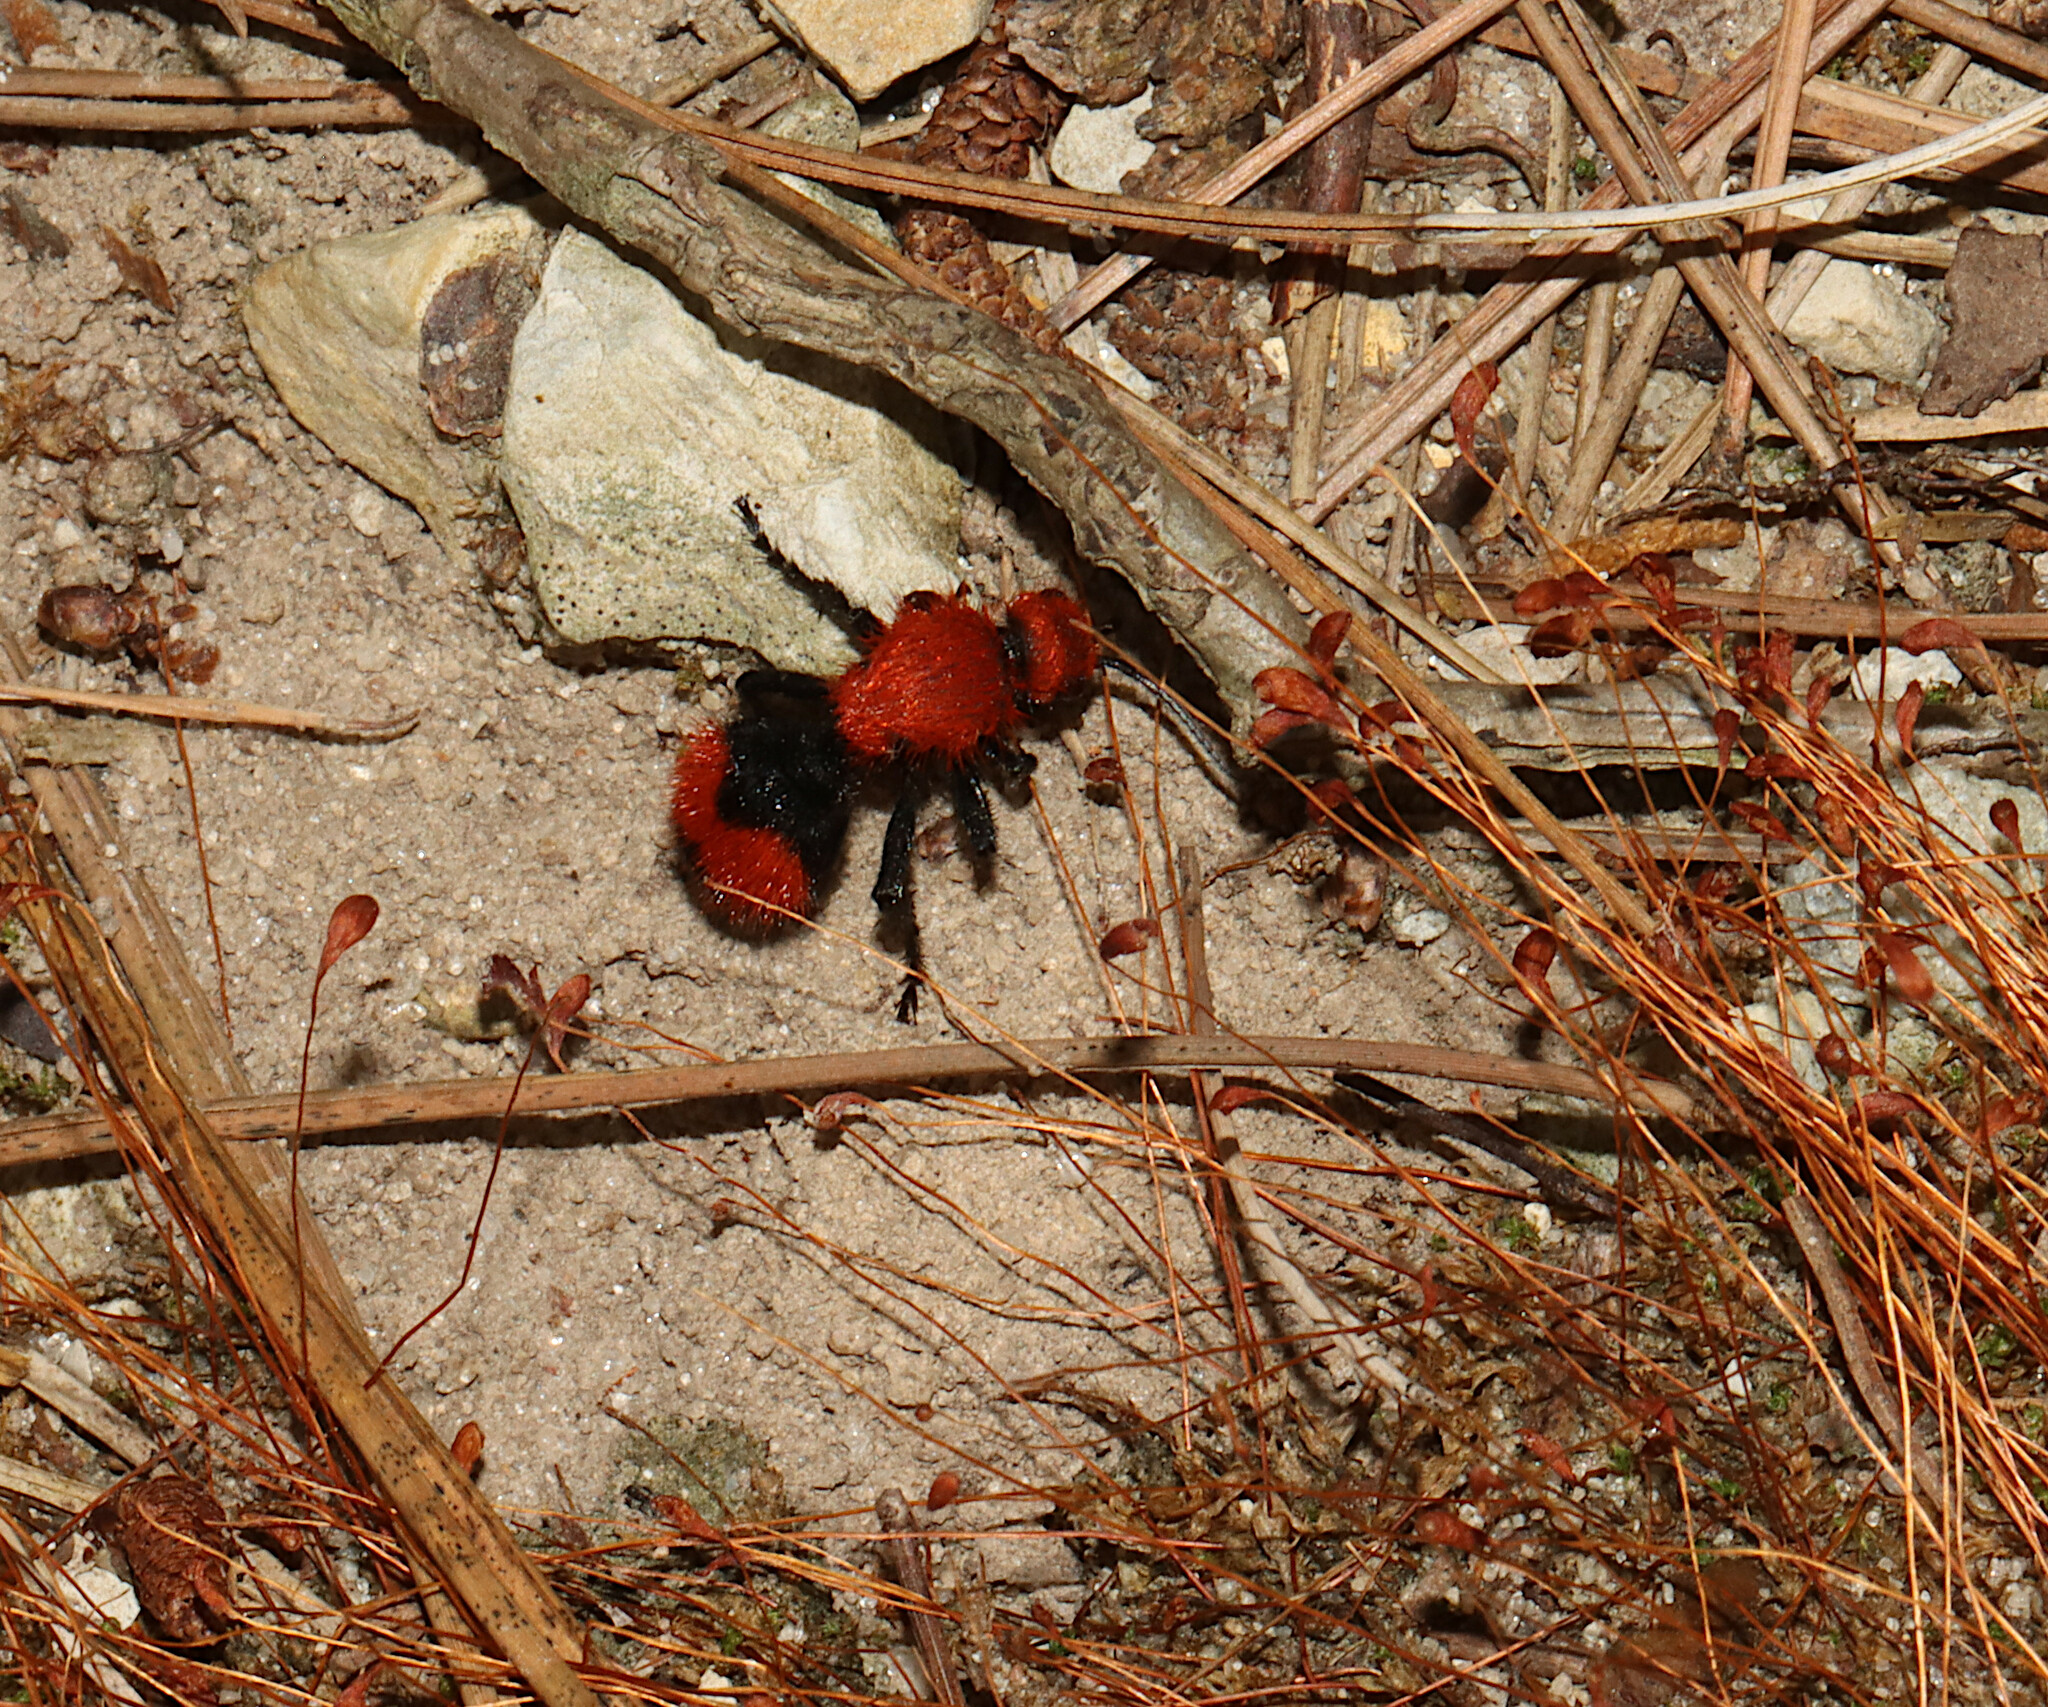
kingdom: Animalia
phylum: Arthropoda
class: Insecta
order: Hymenoptera
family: Mutillidae
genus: Dasymutilla
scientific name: Dasymutilla occidentalis
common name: Common eastern velvet ant
